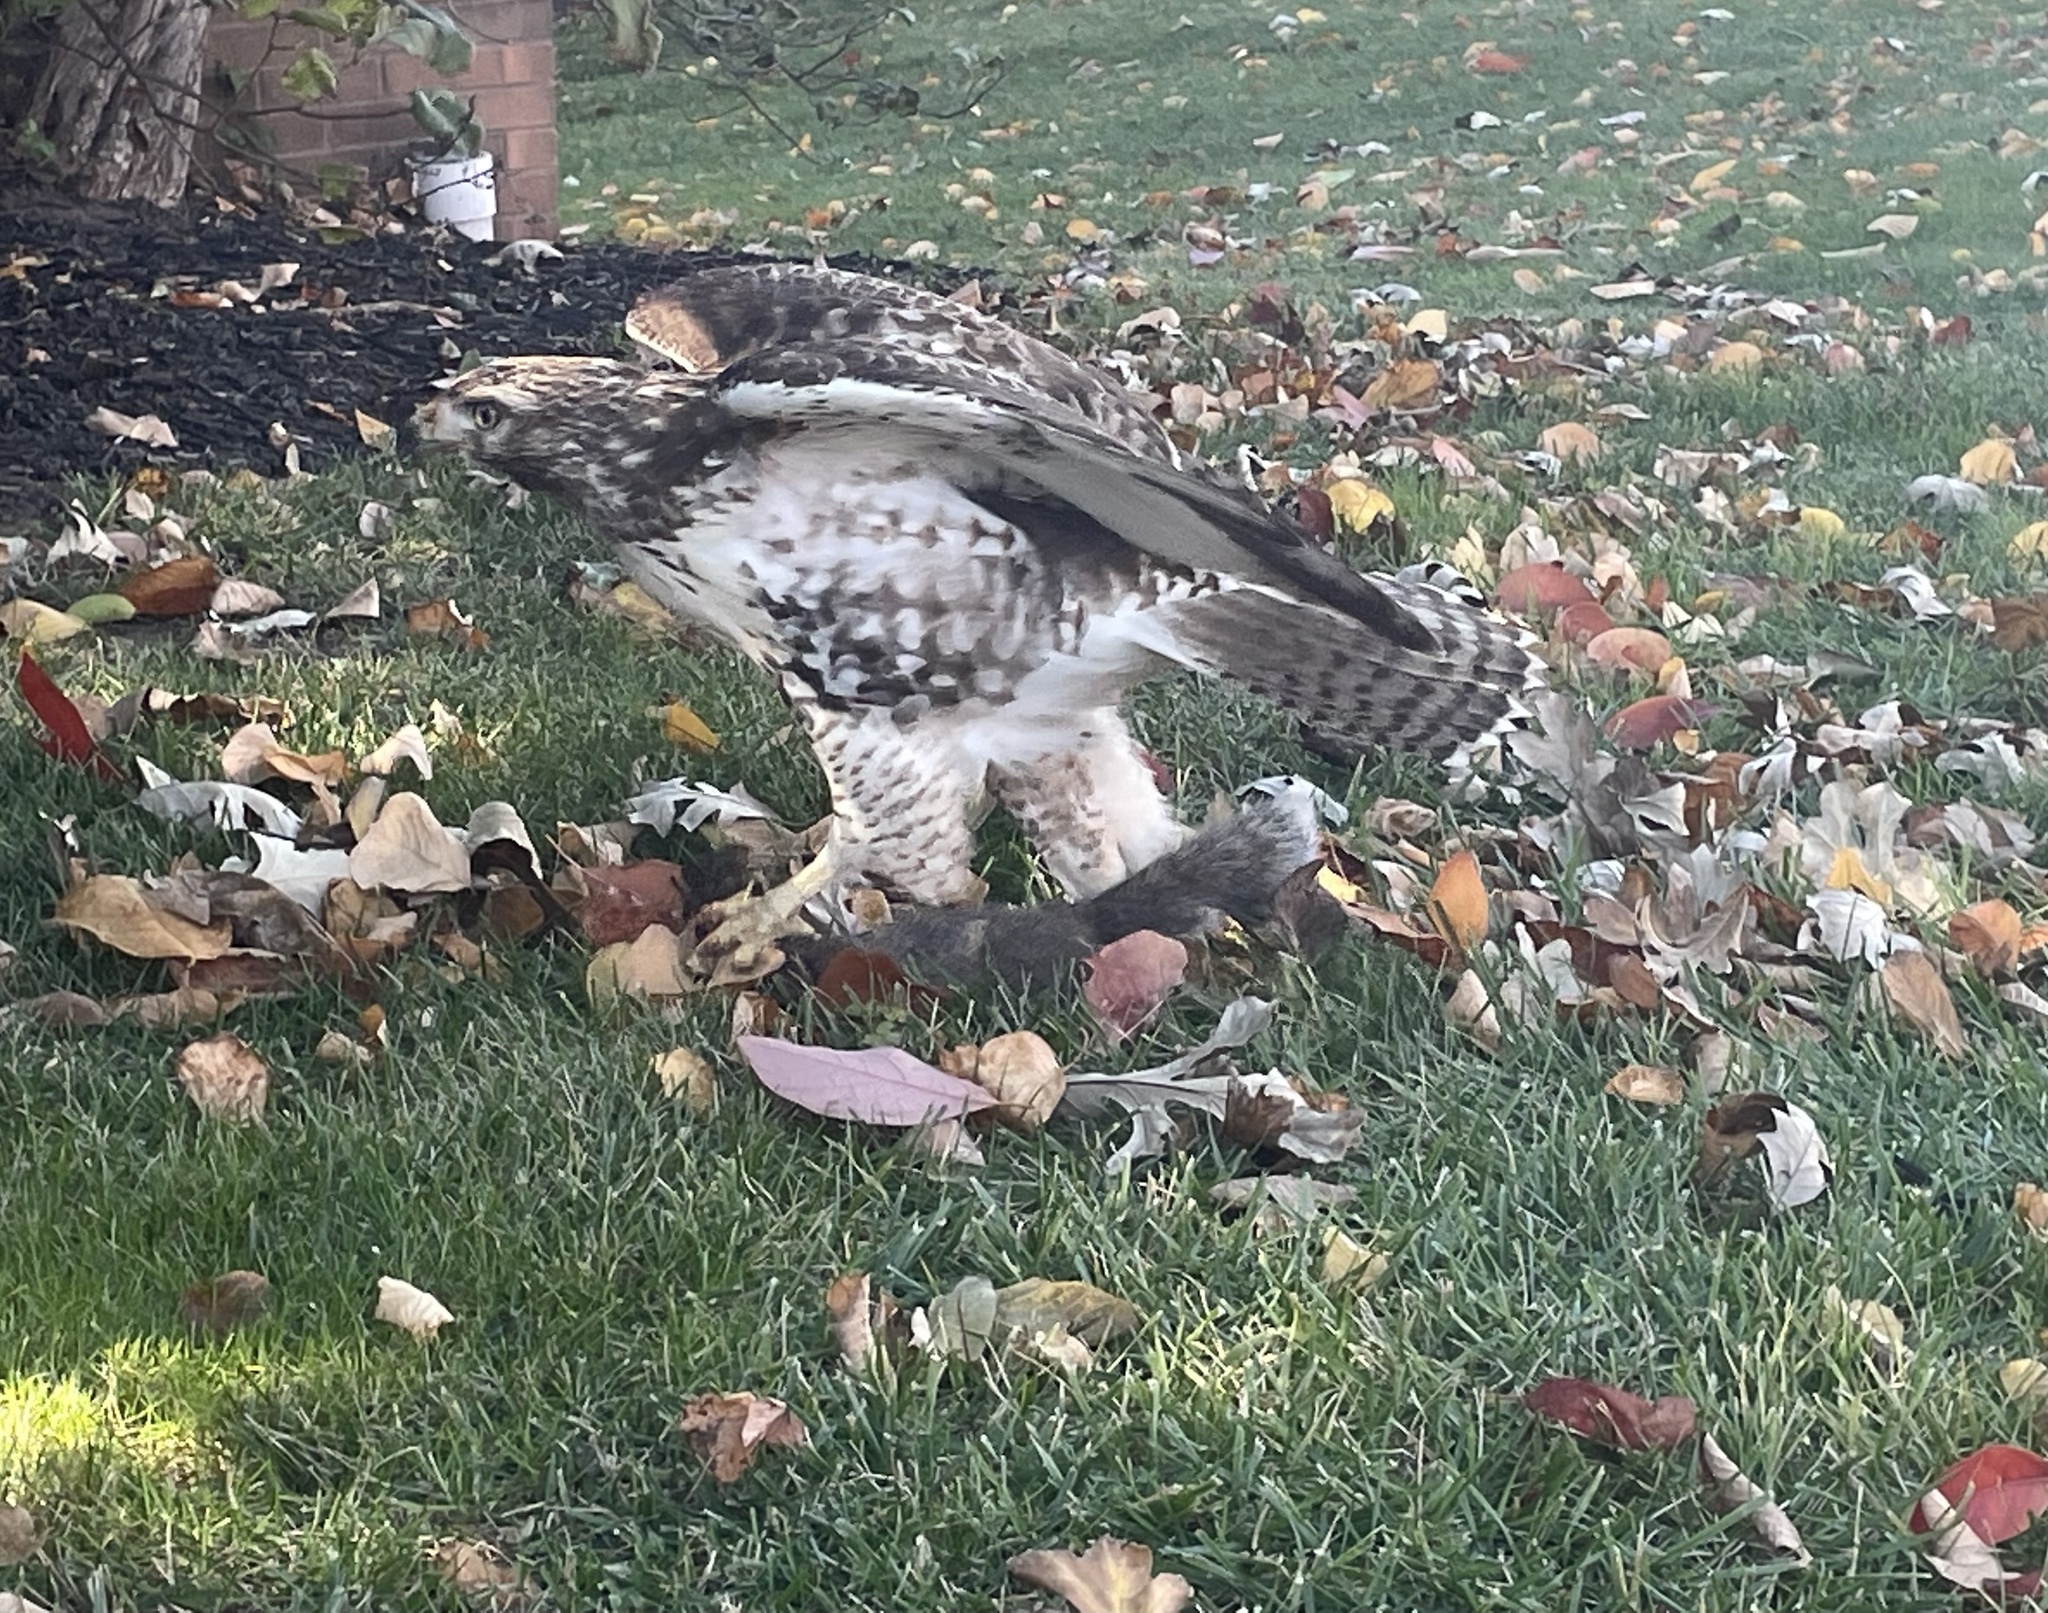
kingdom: Animalia
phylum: Chordata
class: Aves
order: Accipitriformes
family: Accipitridae
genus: Buteo
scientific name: Buteo jamaicensis
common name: Red-tailed hawk
